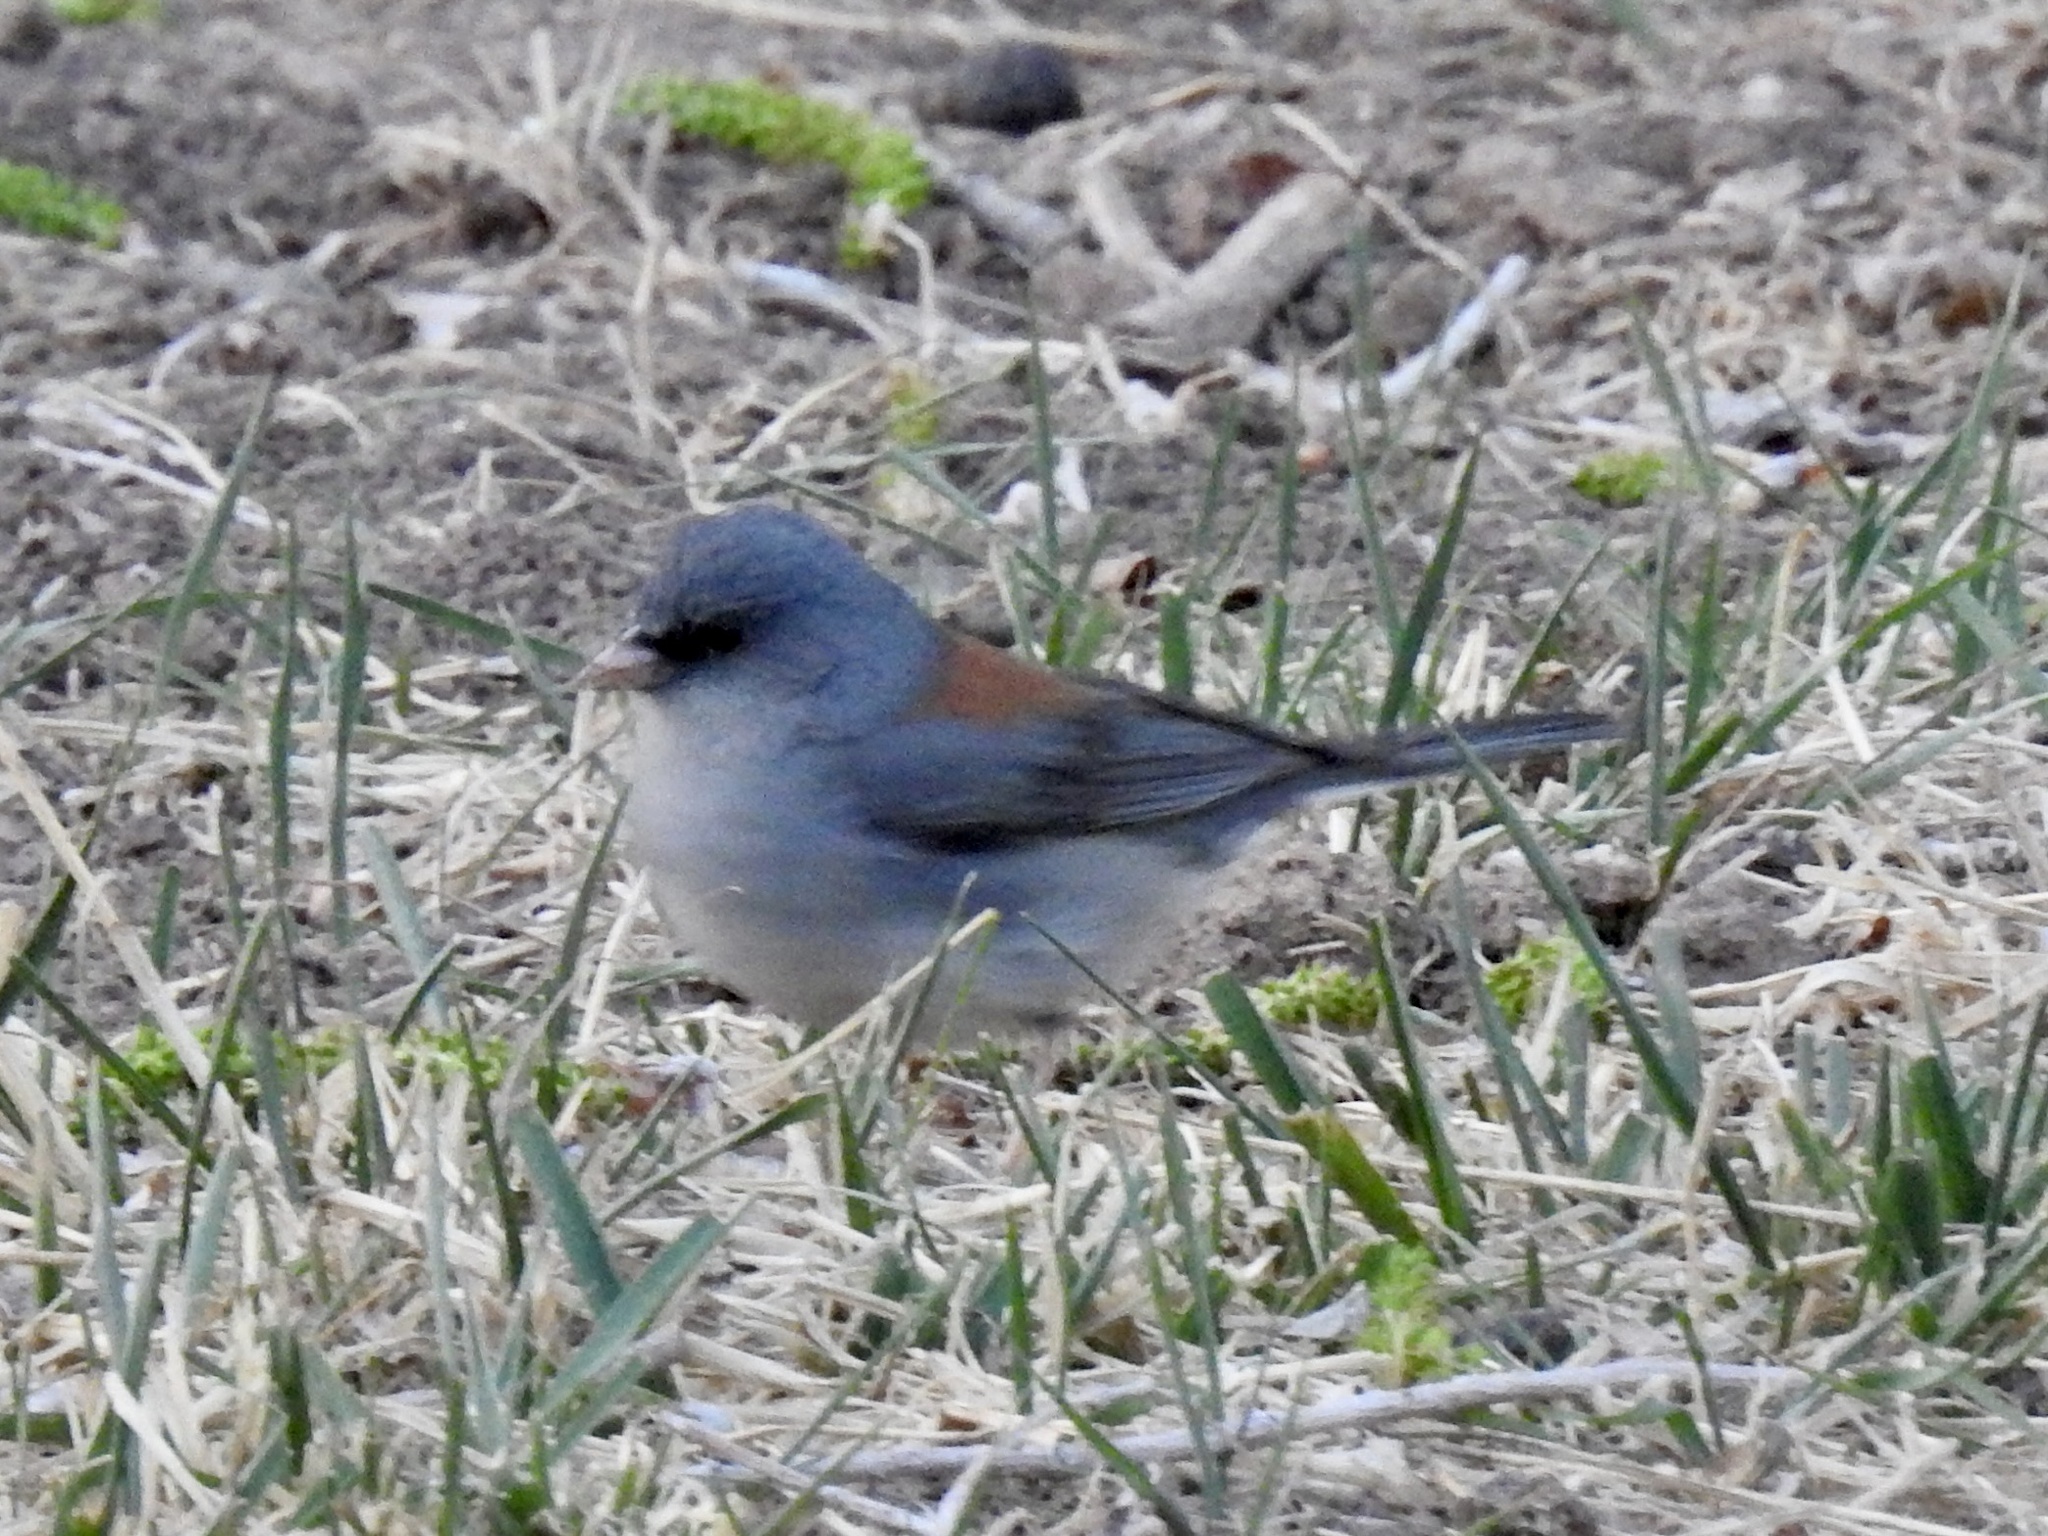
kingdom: Animalia
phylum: Chordata
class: Aves
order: Passeriformes
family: Passerellidae
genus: Junco
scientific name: Junco hyemalis
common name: Dark-eyed junco
